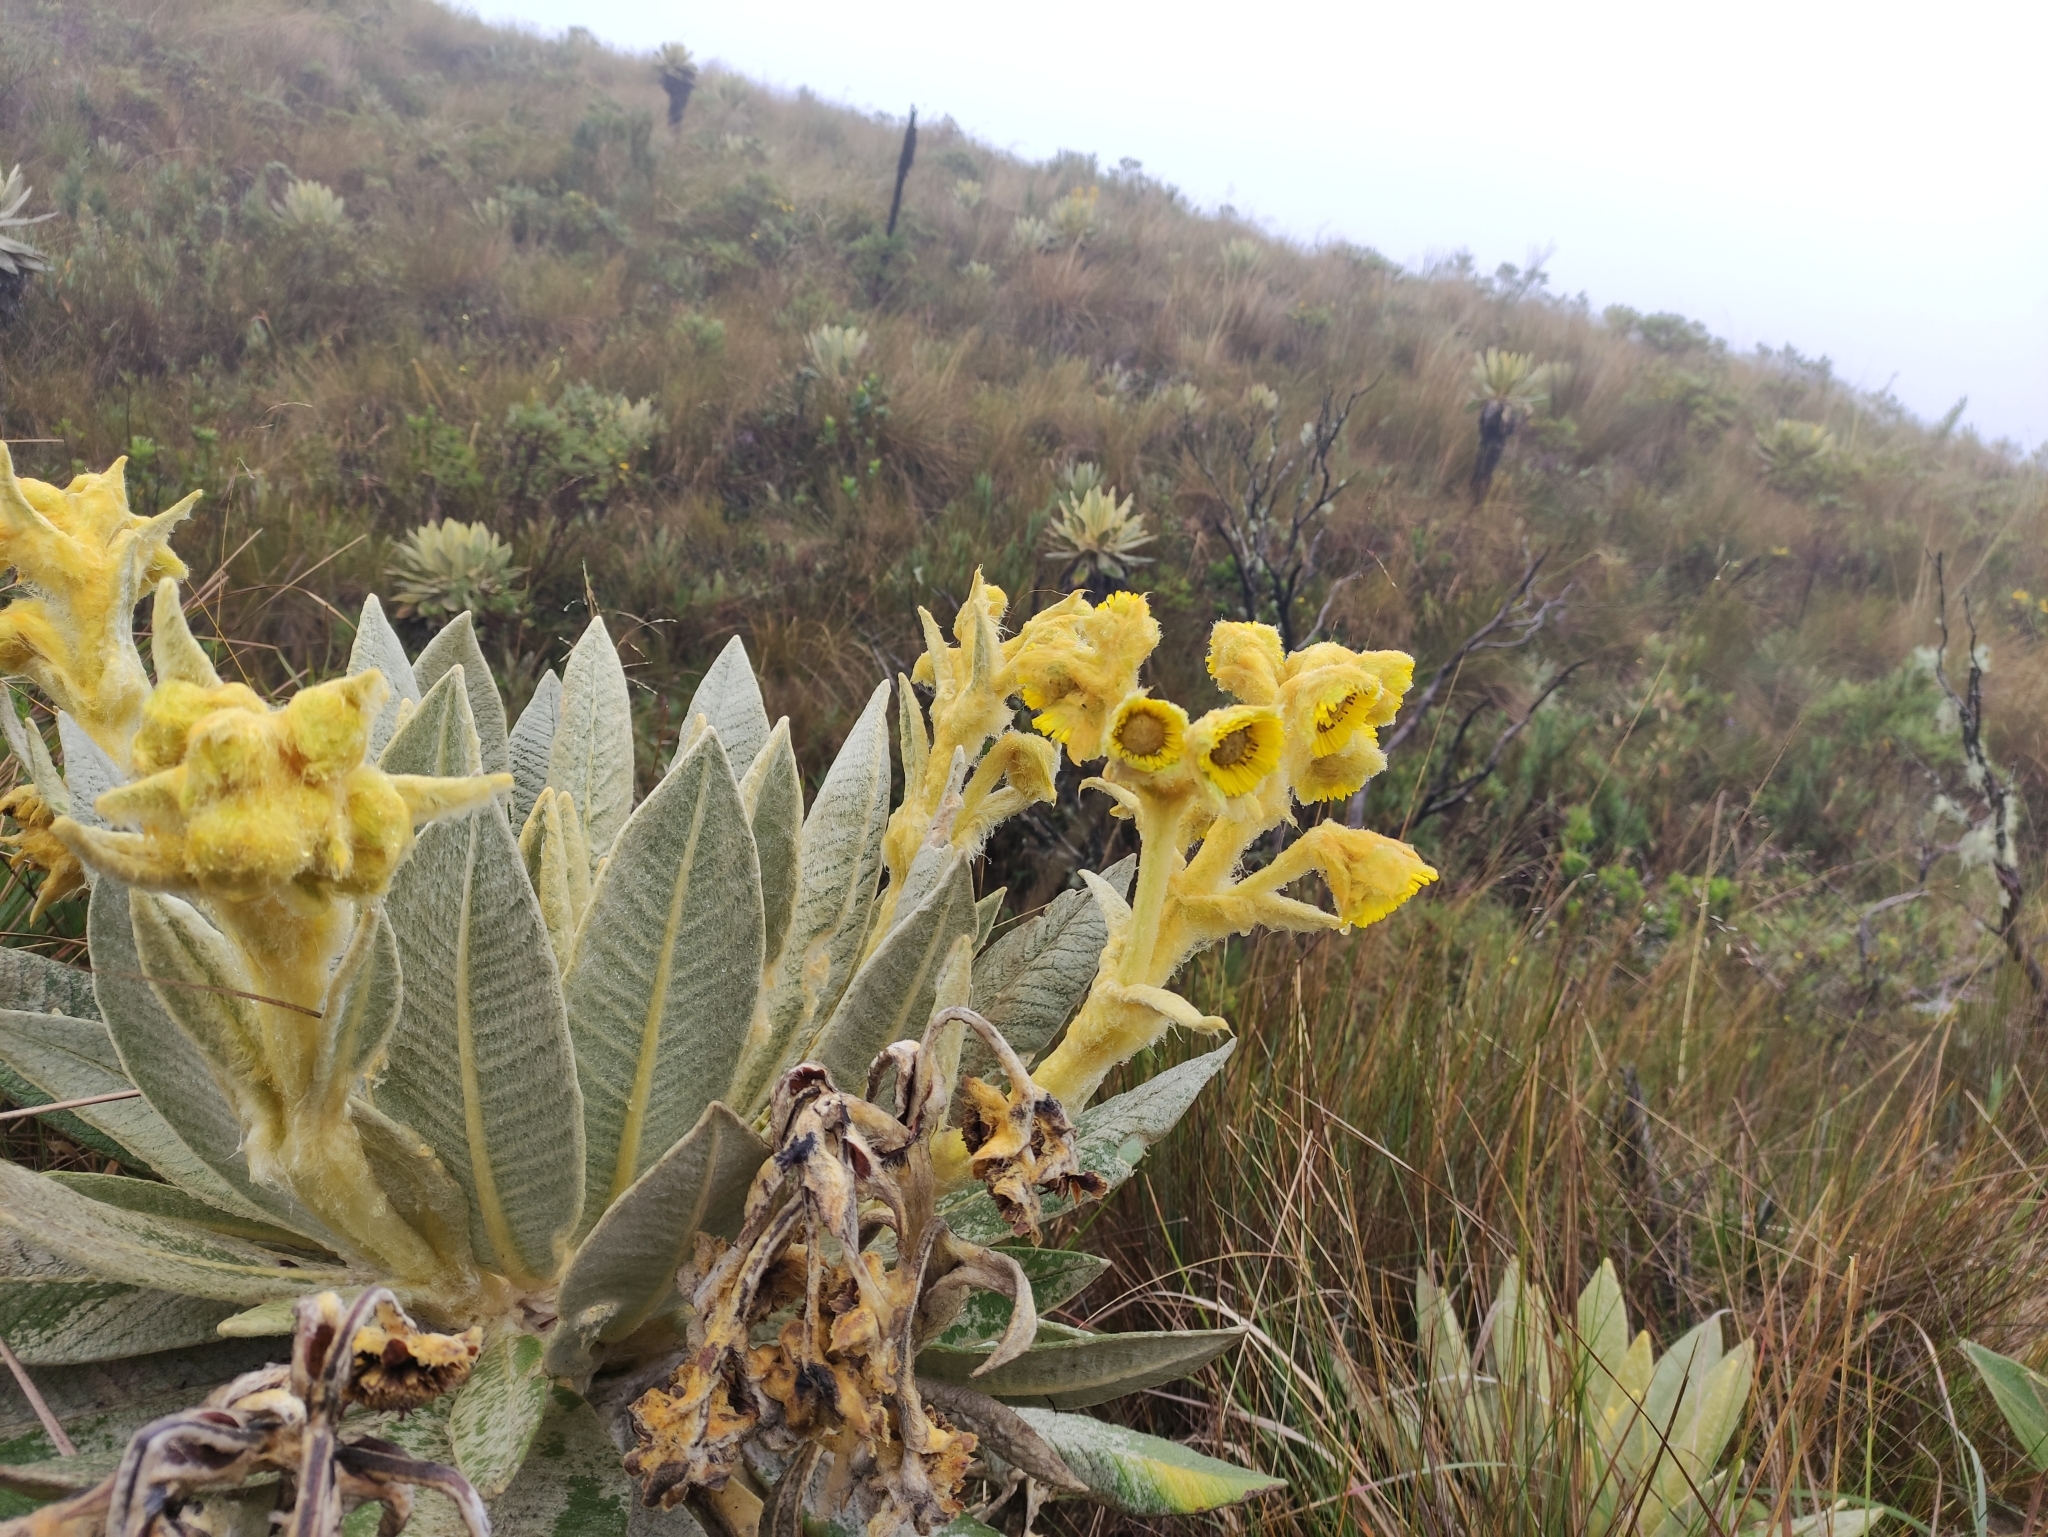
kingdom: Plantae
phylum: Tracheophyta
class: Magnoliopsida
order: Asterales
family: Asteraceae
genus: Espeletia
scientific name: Espeletia hartwegiana
